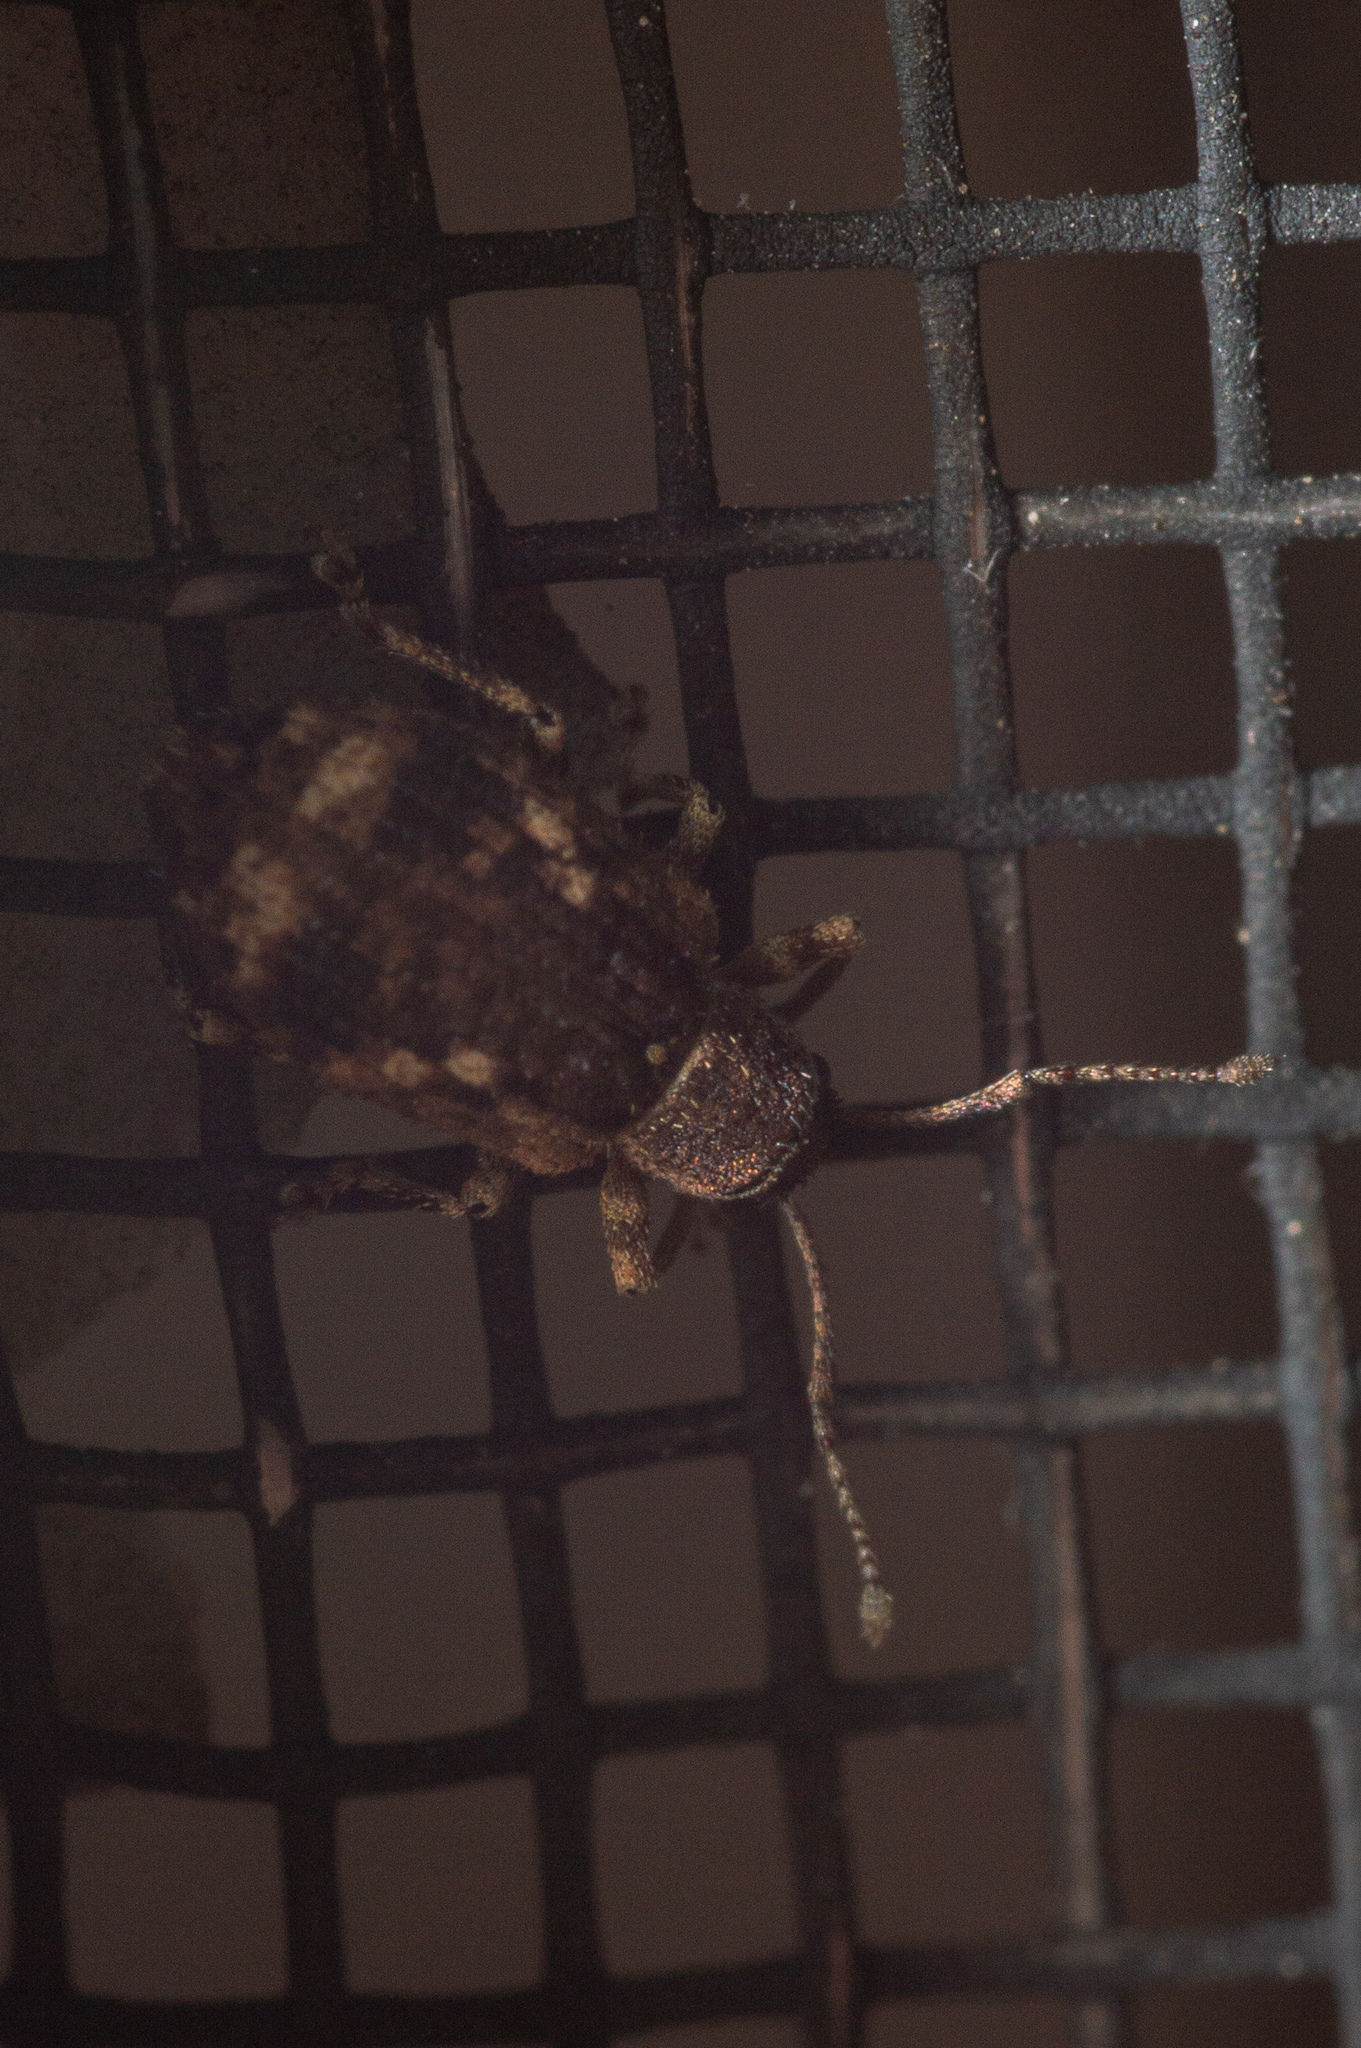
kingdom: Animalia
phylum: Arthropoda
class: Insecta
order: Coleoptera
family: Curculionidae
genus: Pseudoedophrys
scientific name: Pseudoedophrys hilleri
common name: Weevil
